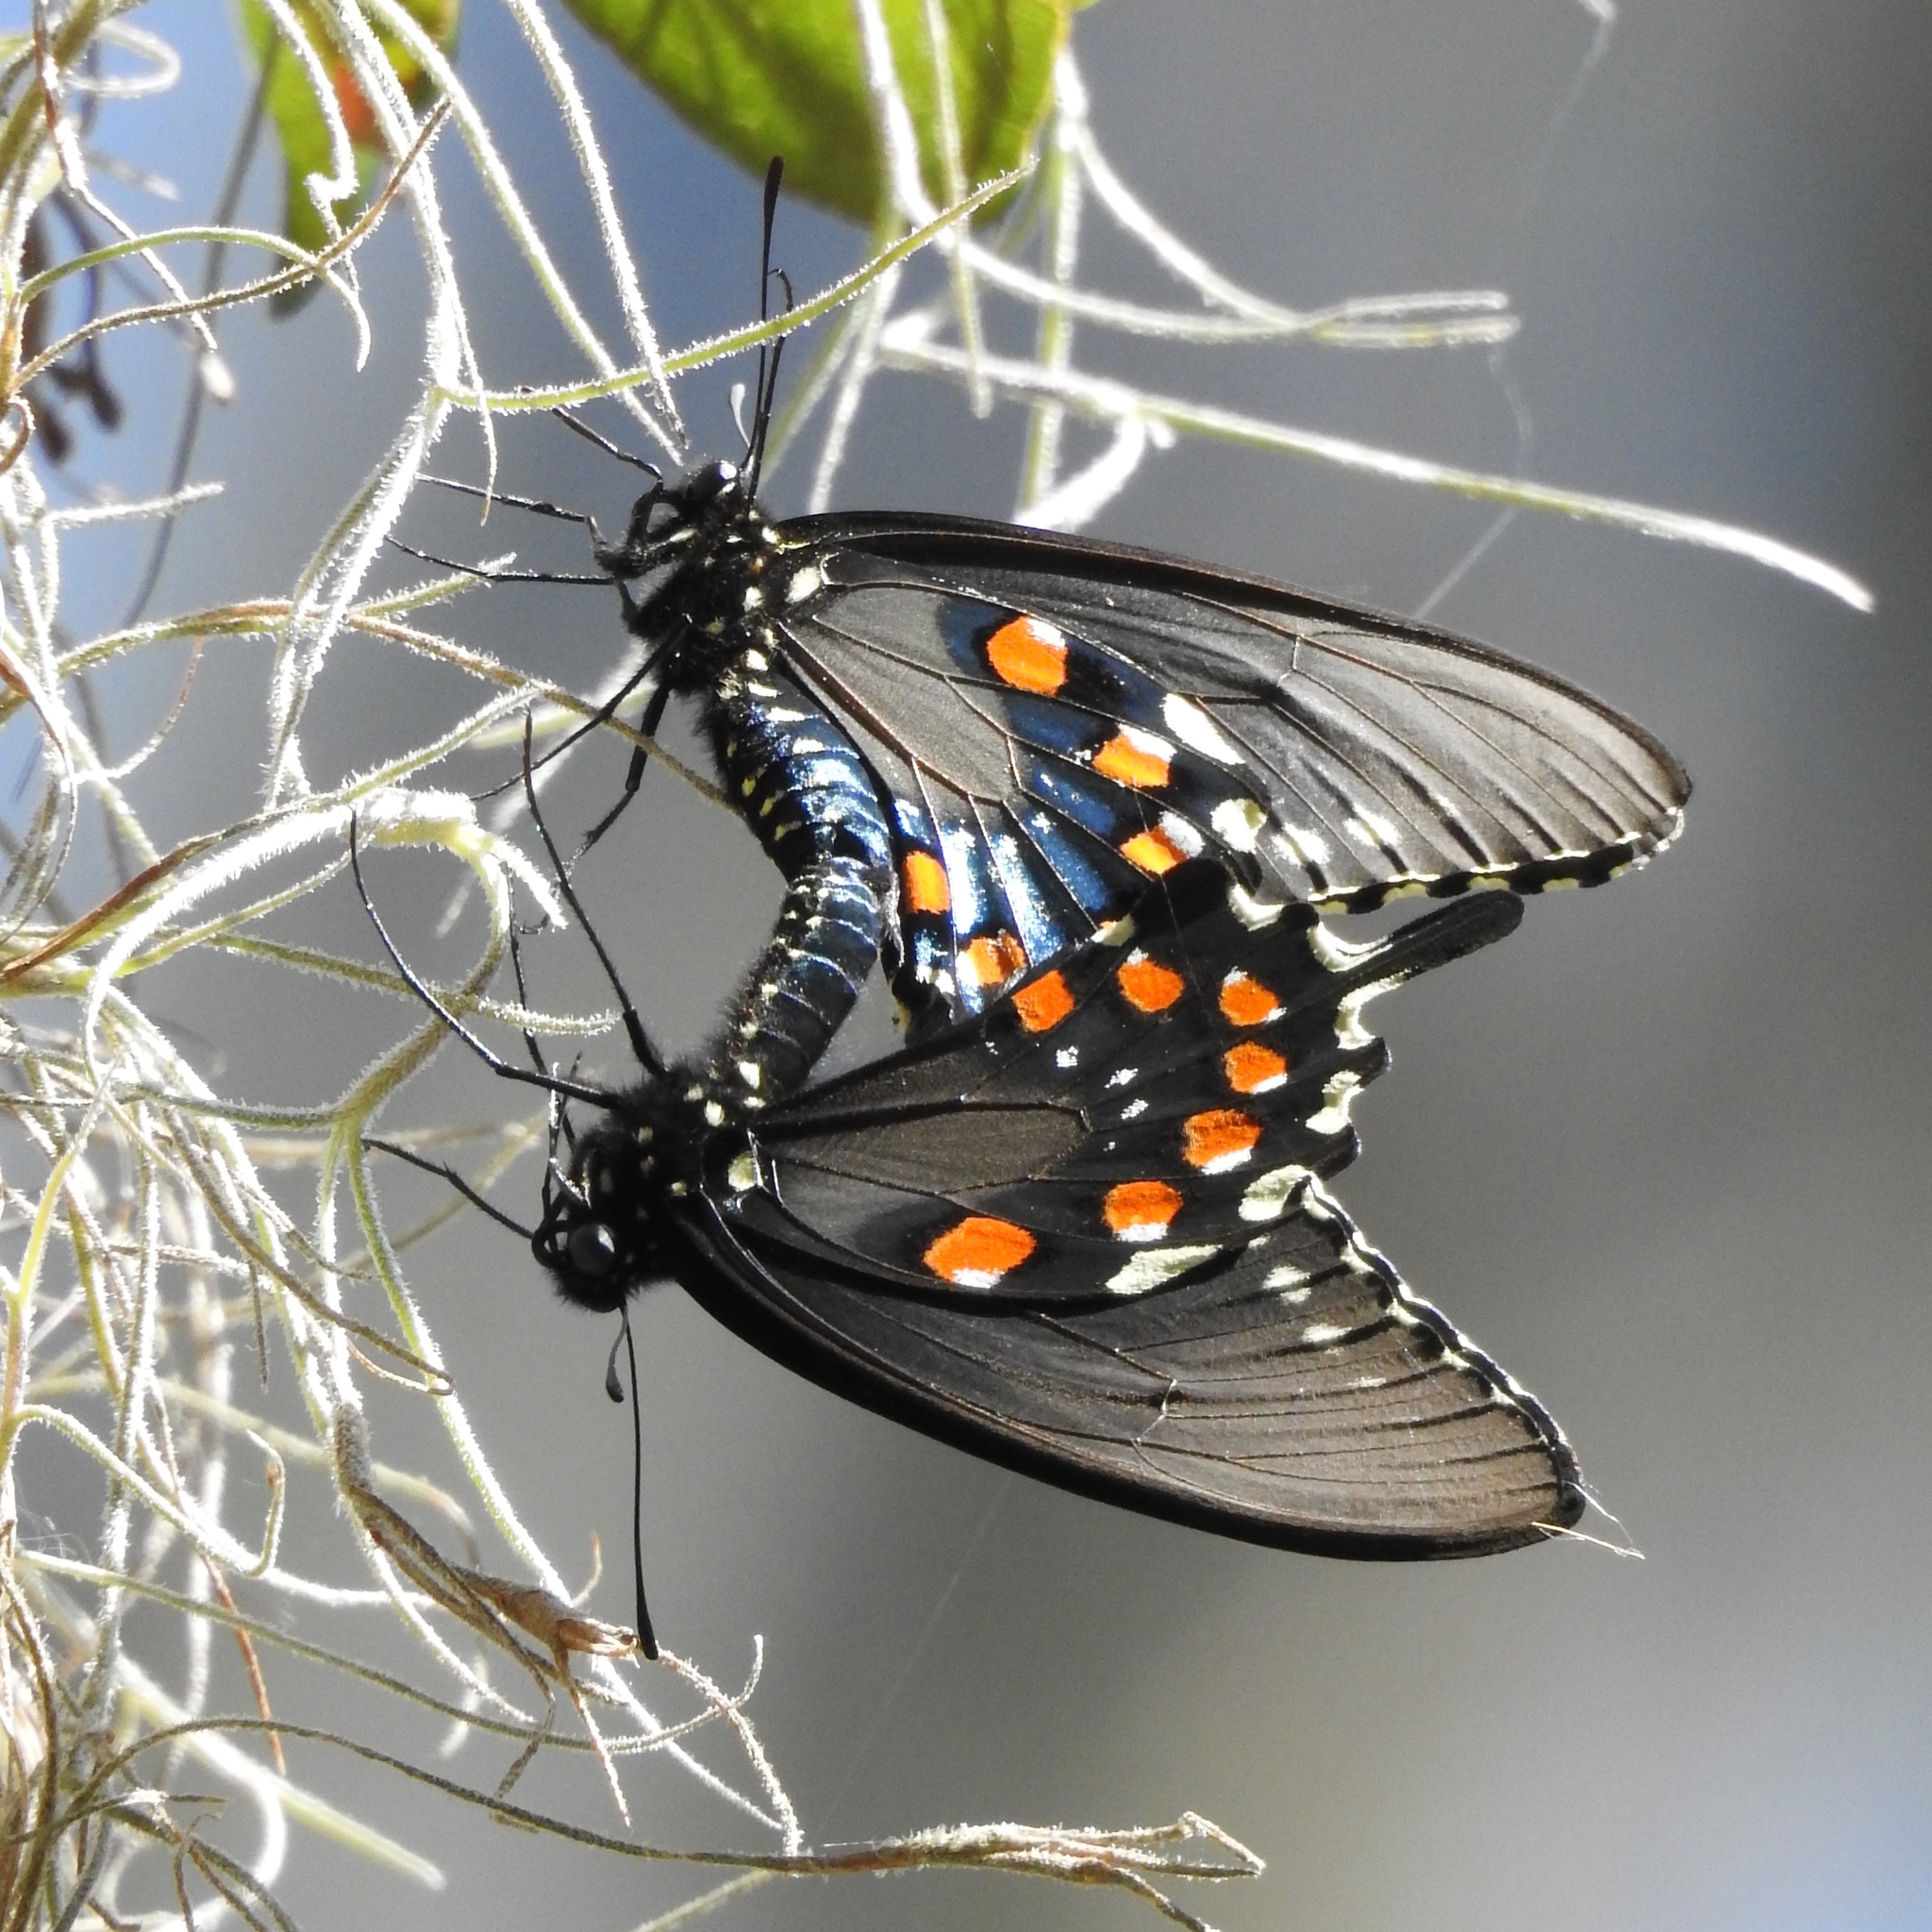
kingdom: Animalia
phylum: Arthropoda
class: Insecta
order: Lepidoptera
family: Papilionidae
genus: Battus
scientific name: Battus philenor
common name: Pipevine swallowtail
